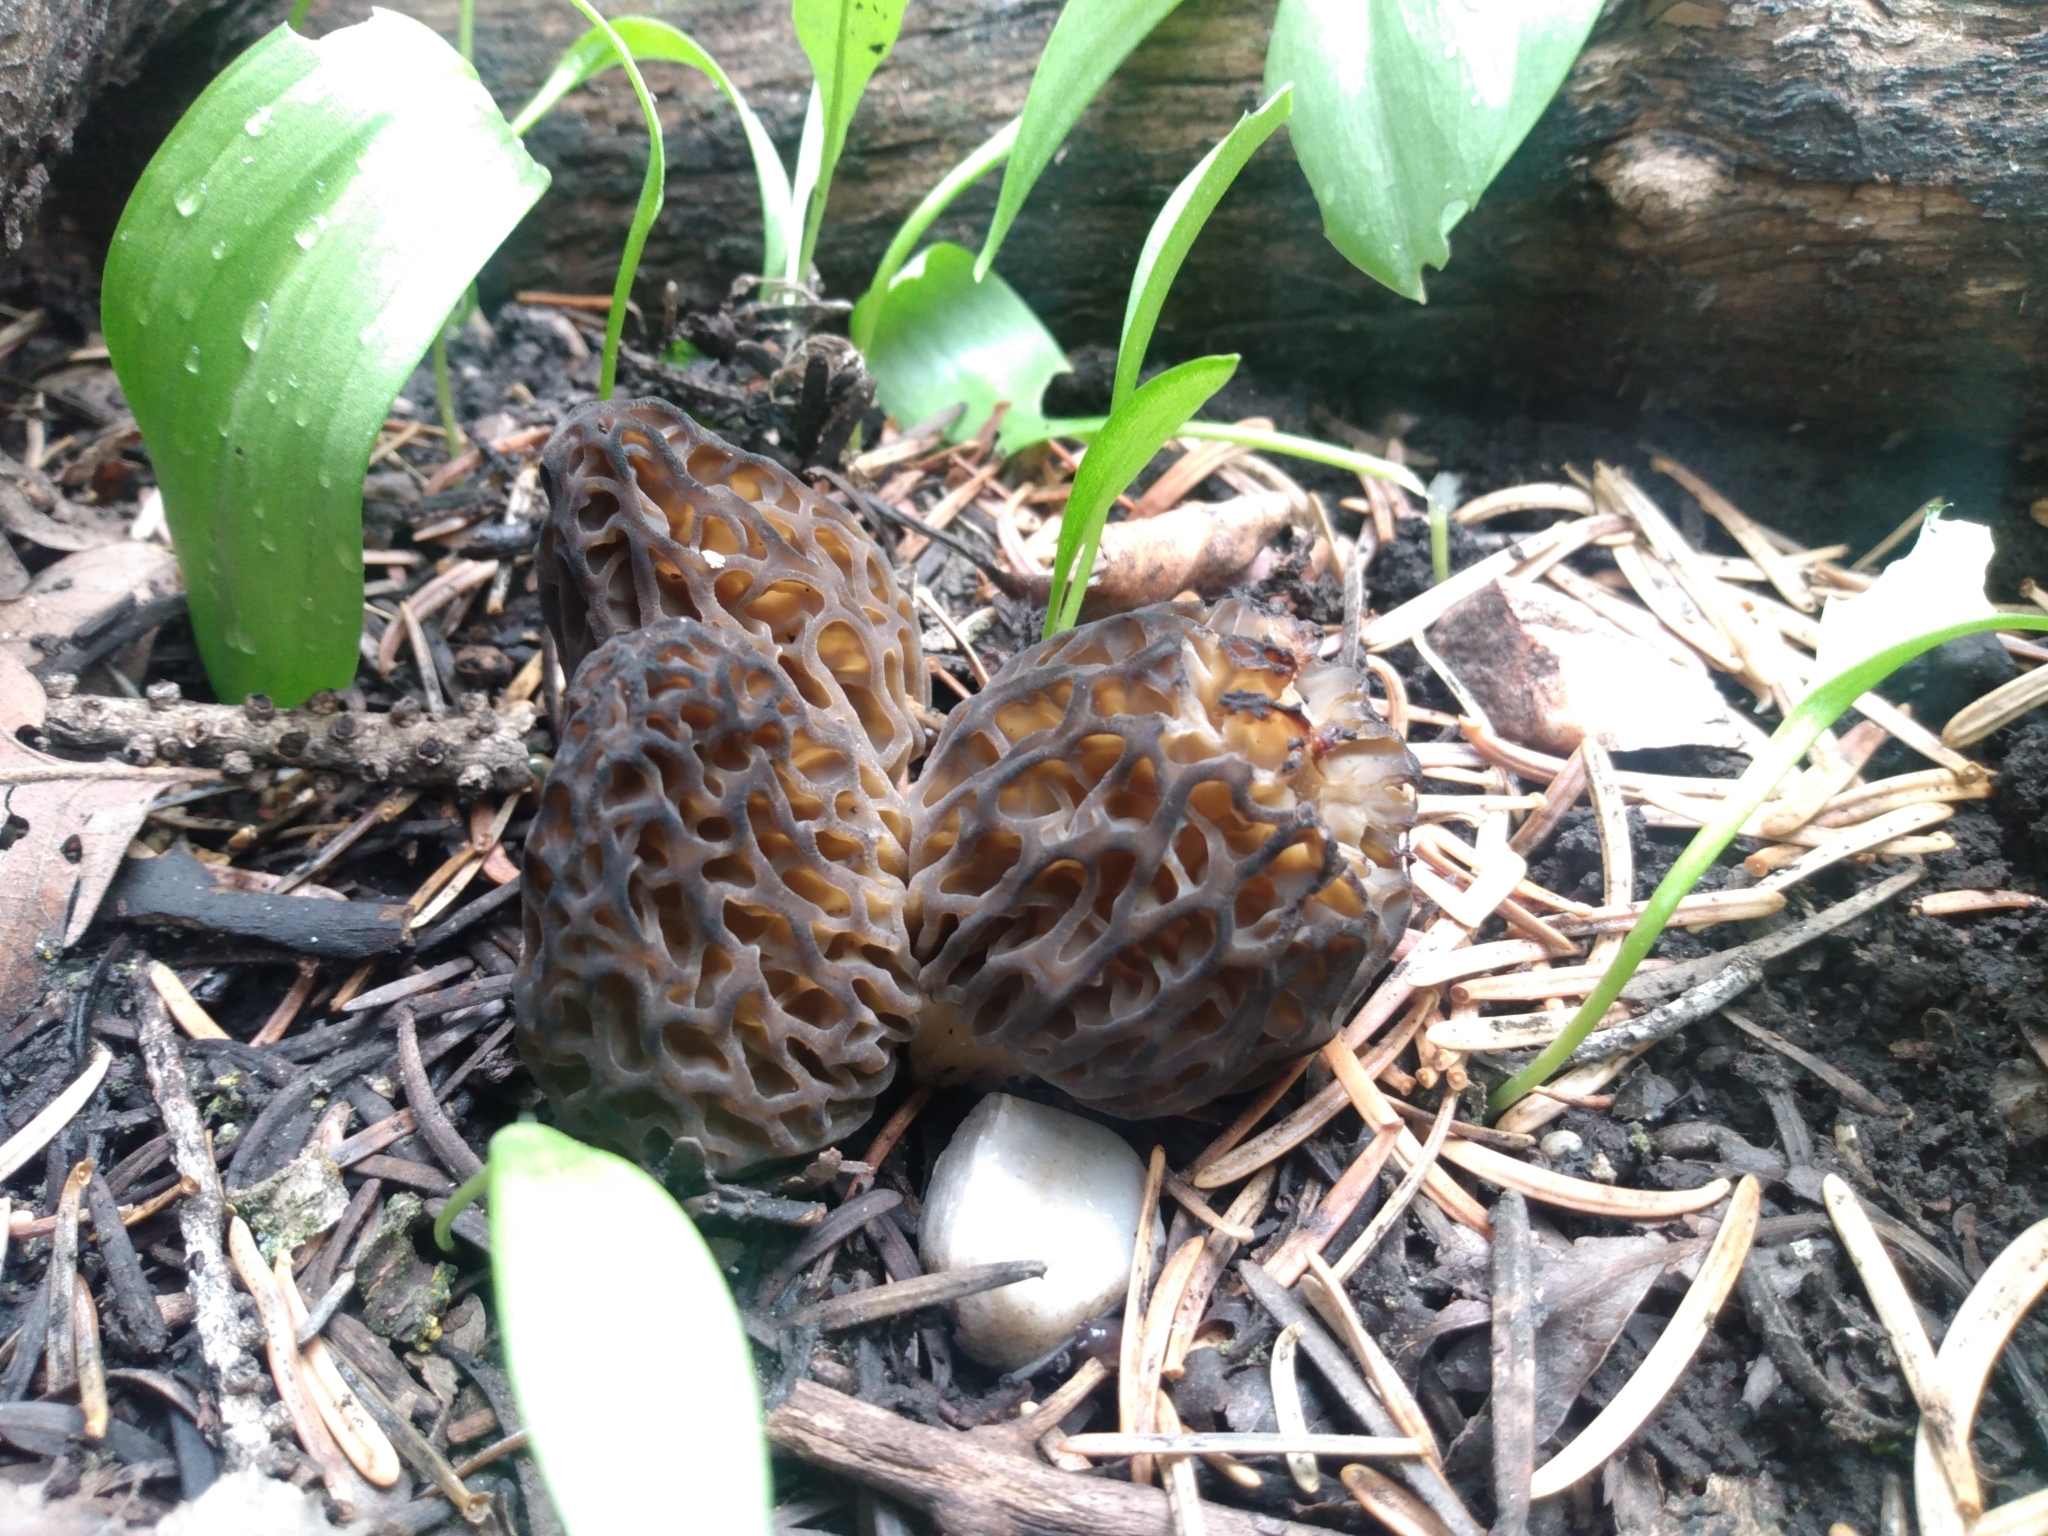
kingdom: Fungi
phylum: Ascomycota
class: Pezizomycetes
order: Pezizales
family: Morchellaceae
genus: Morchella
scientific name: Morchella snyderi
